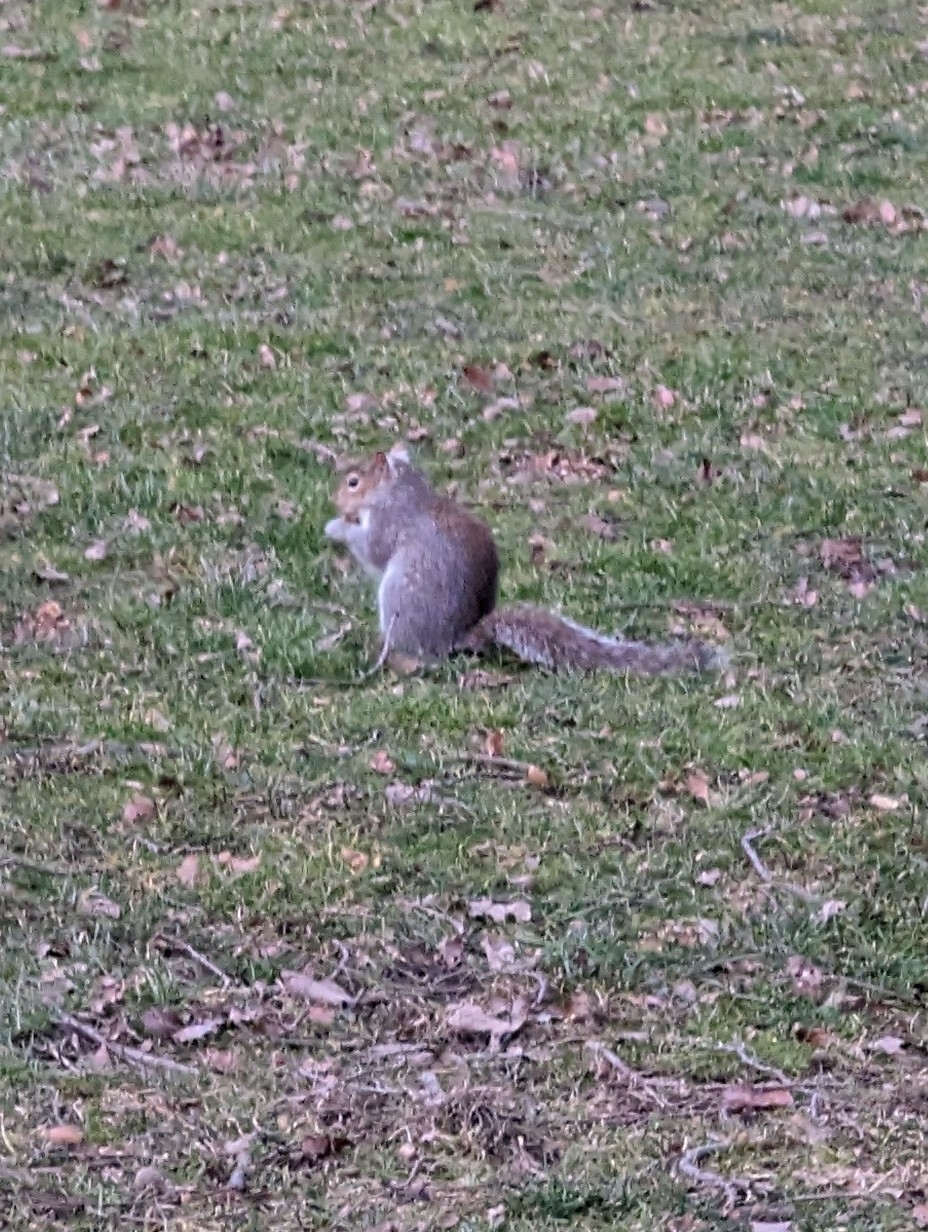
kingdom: Animalia
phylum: Chordata
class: Mammalia
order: Rodentia
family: Sciuridae
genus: Sciurus
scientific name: Sciurus carolinensis
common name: Eastern gray squirrel
